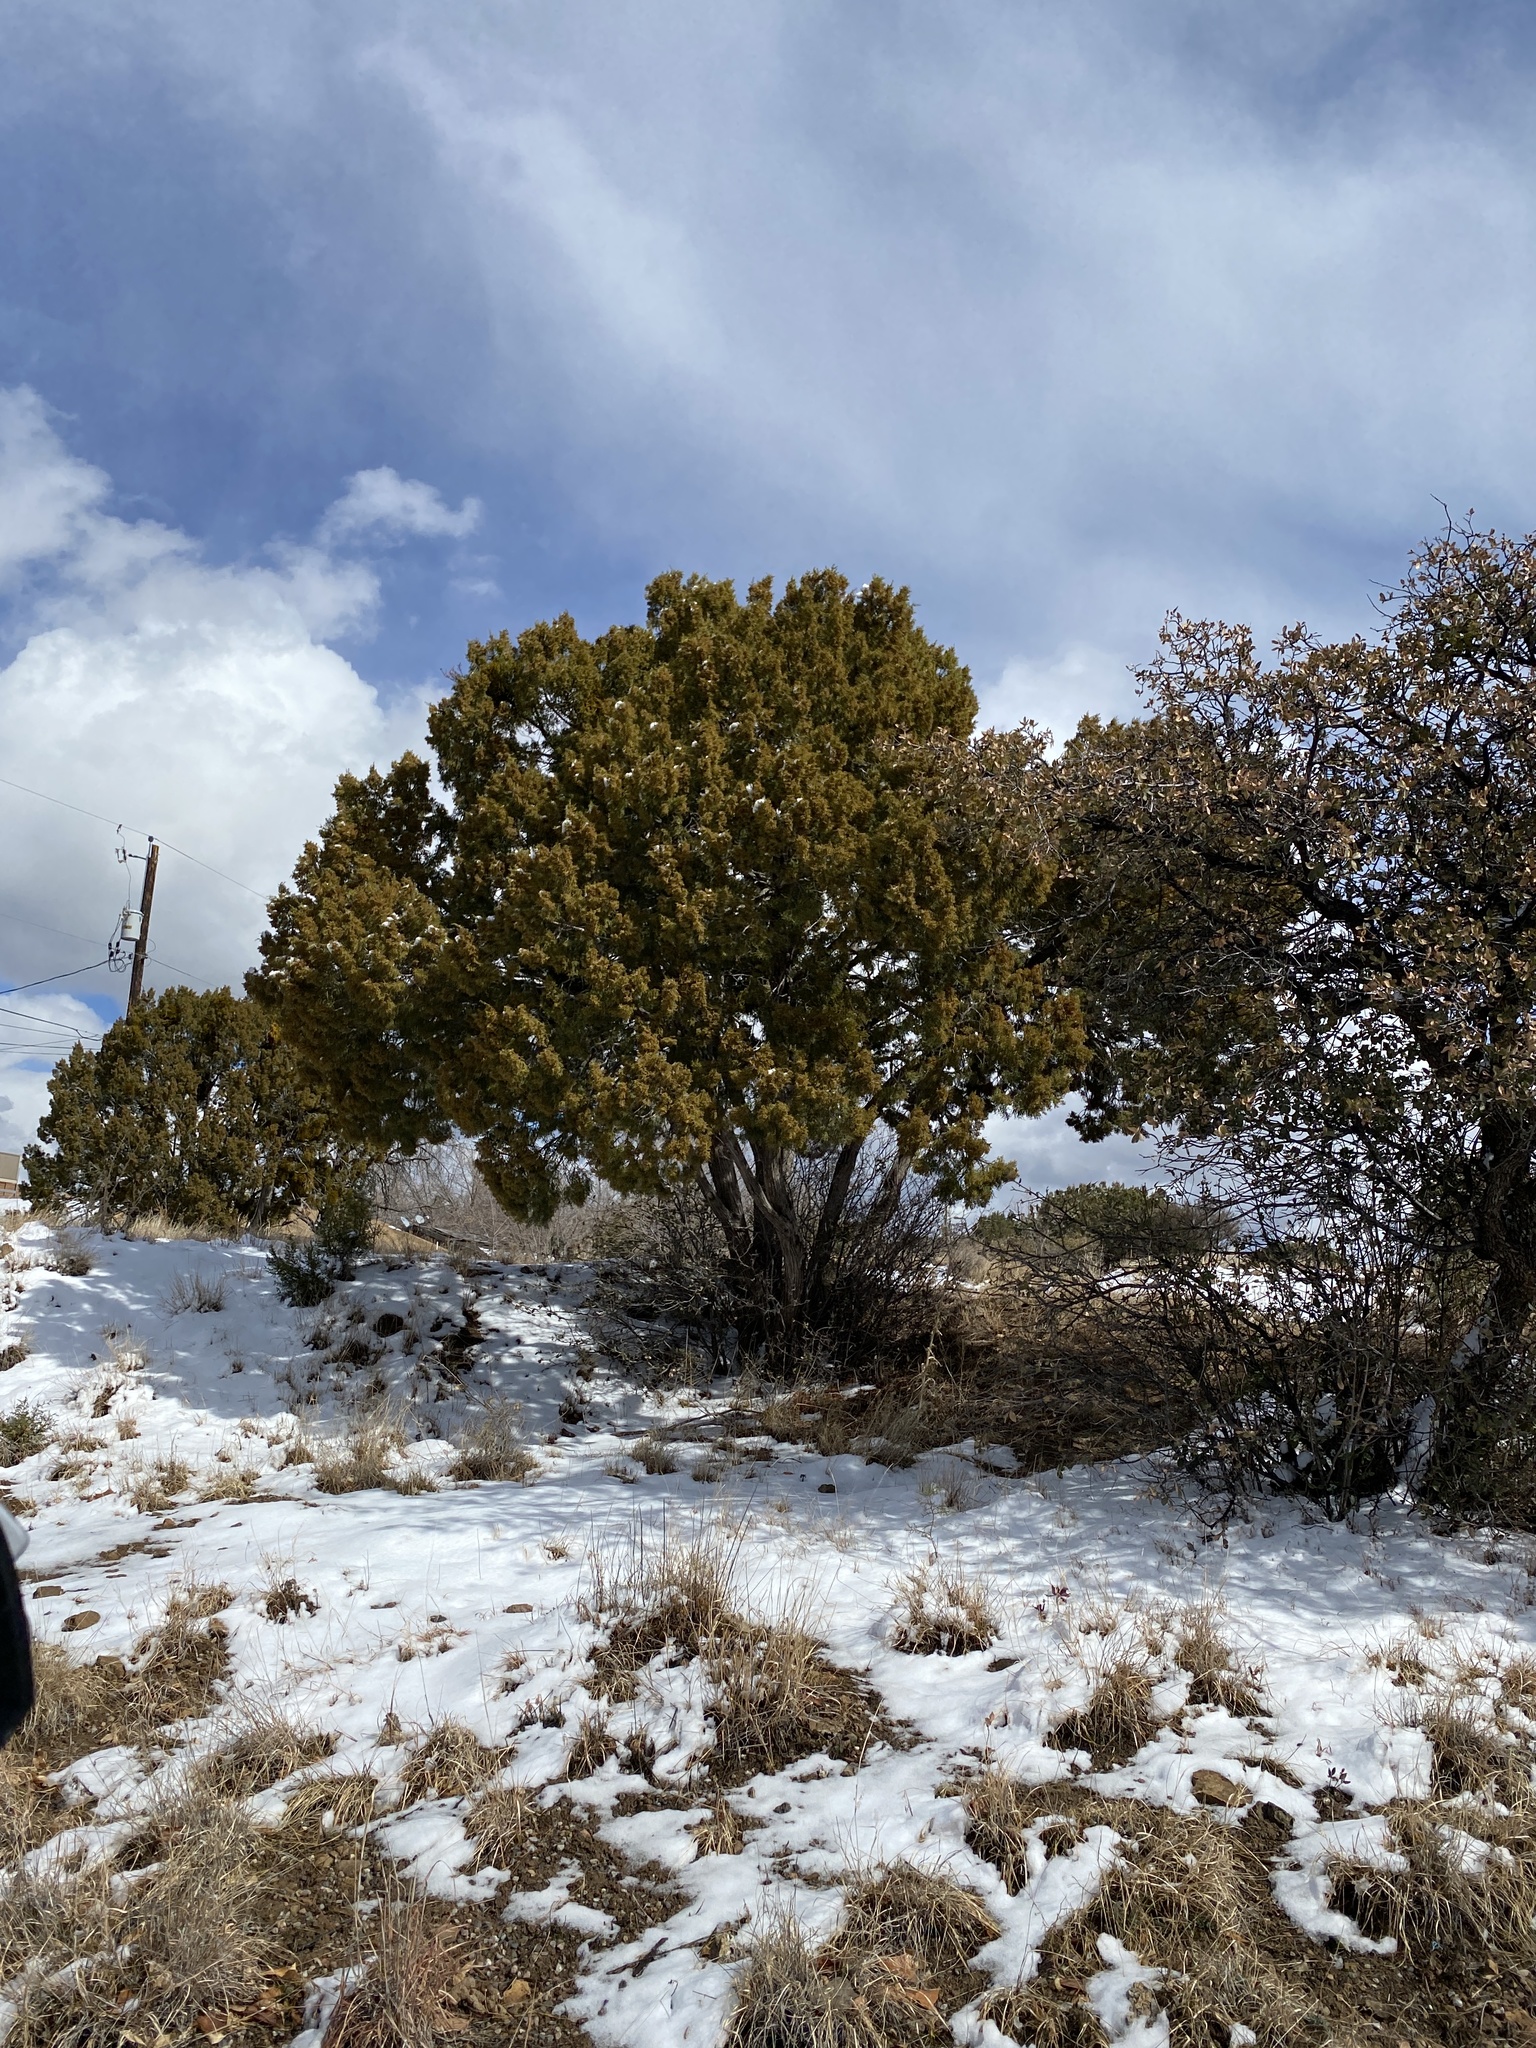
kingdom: Plantae
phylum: Tracheophyta
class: Pinopsida
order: Pinales
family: Cupressaceae
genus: Juniperus
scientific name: Juniperus monosperma
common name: One-seed juniper
